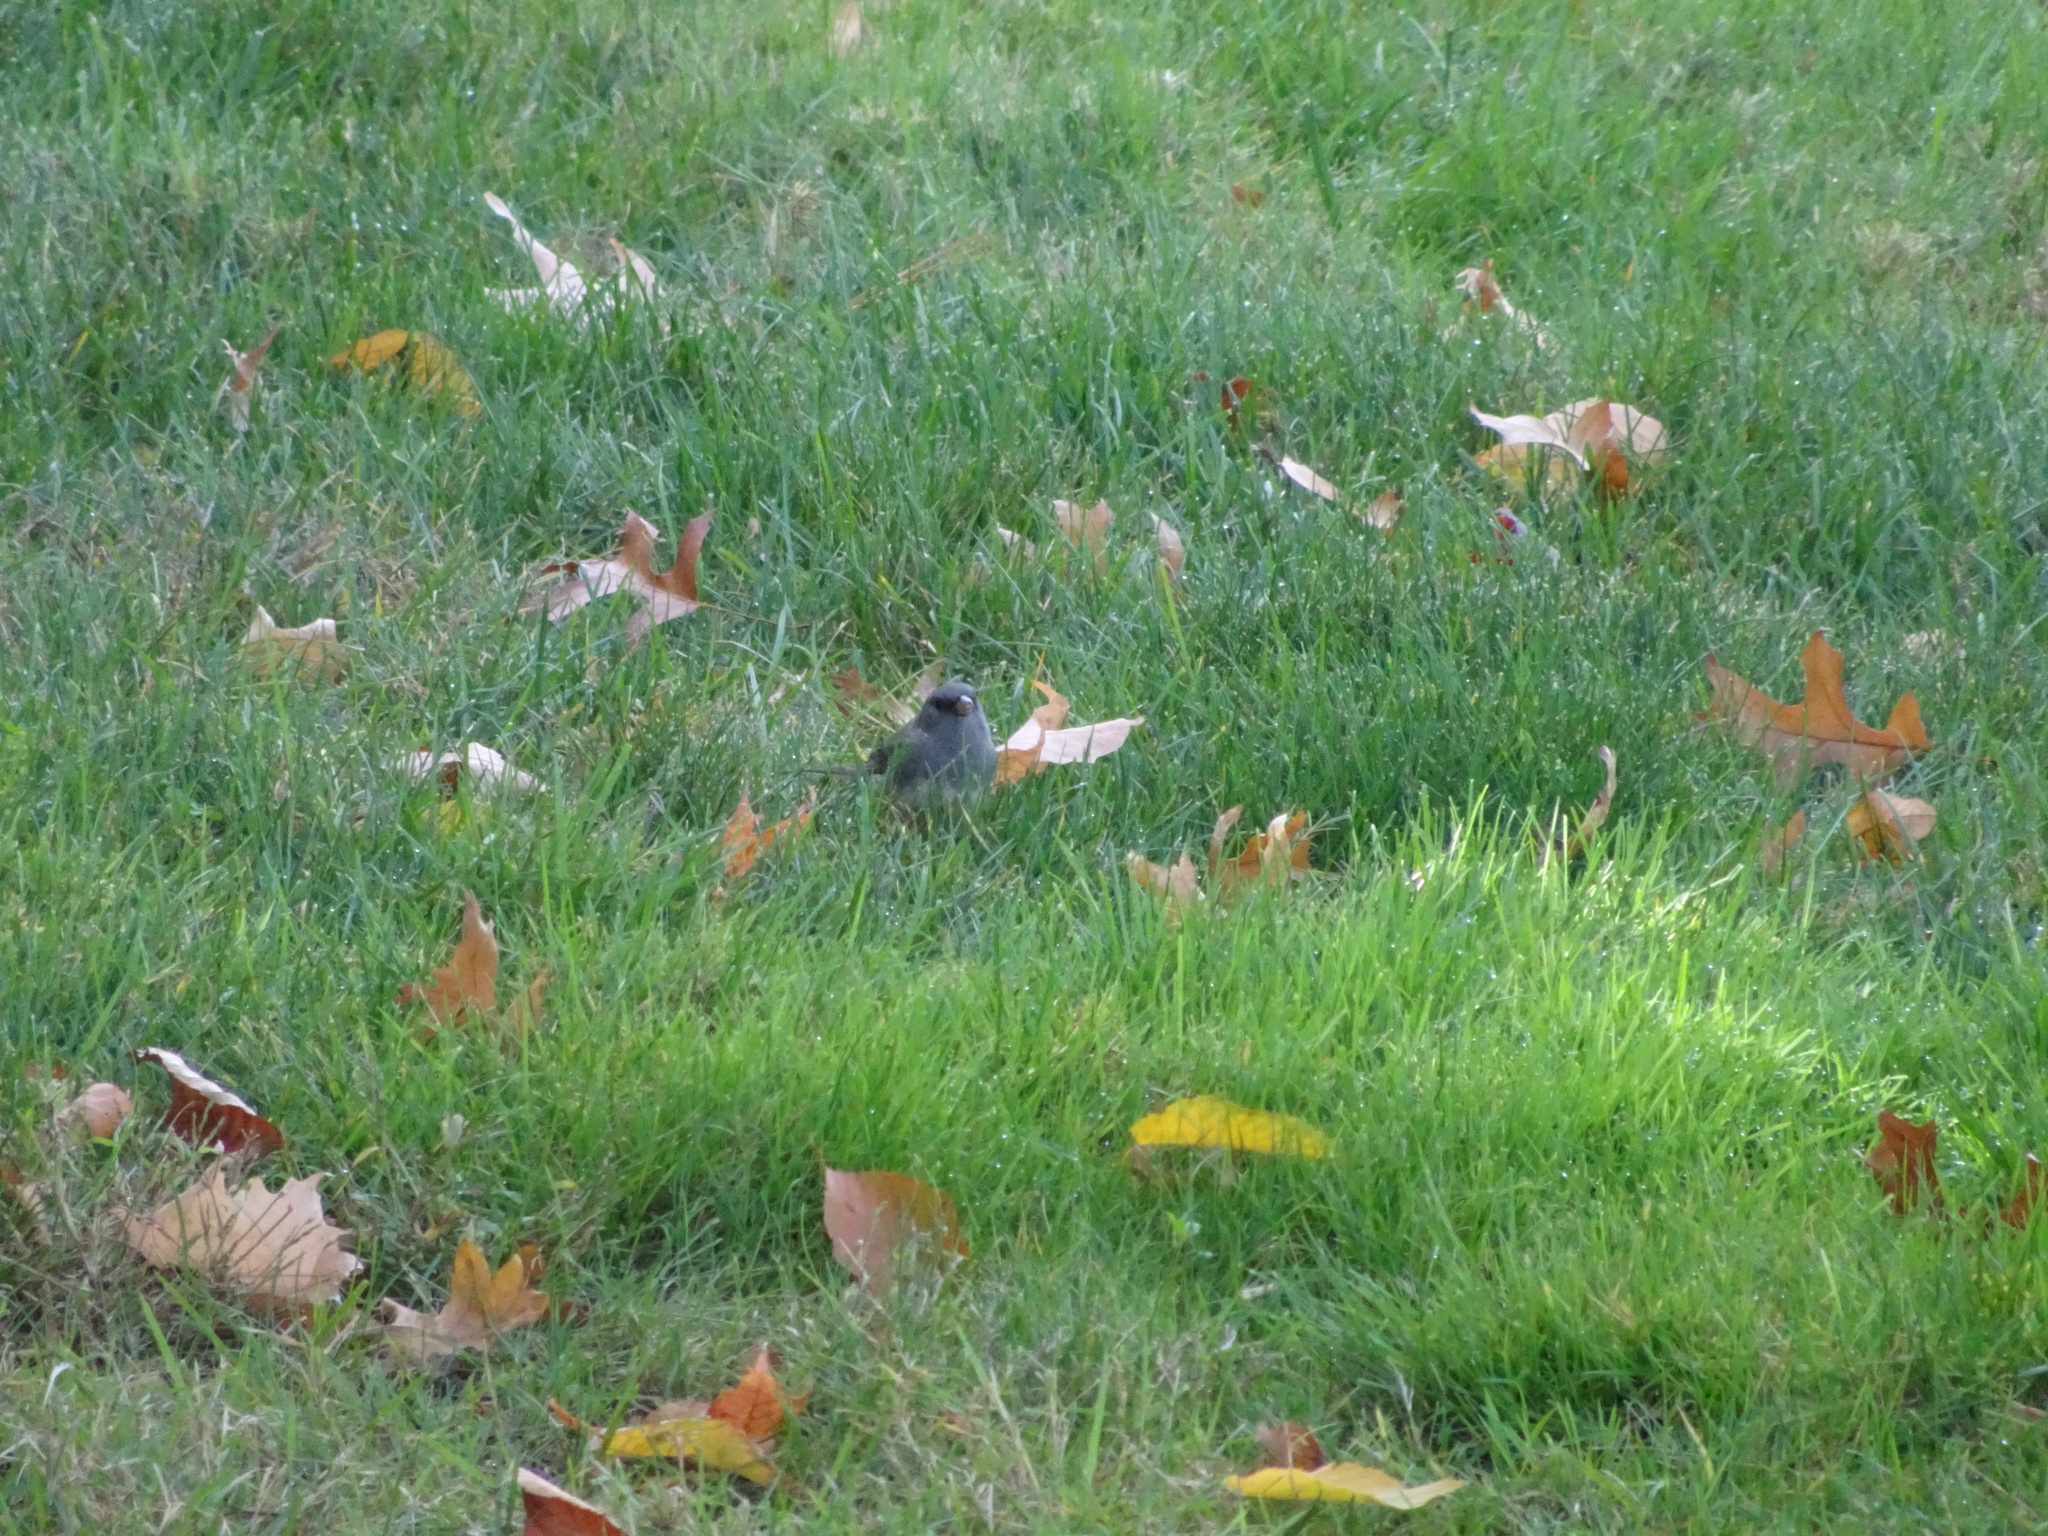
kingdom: Animalia
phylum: Chordata
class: Aves
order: Passeriformes
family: Passerellidae
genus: Junco
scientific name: Junco hyemalis
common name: Dark-eyed junco
